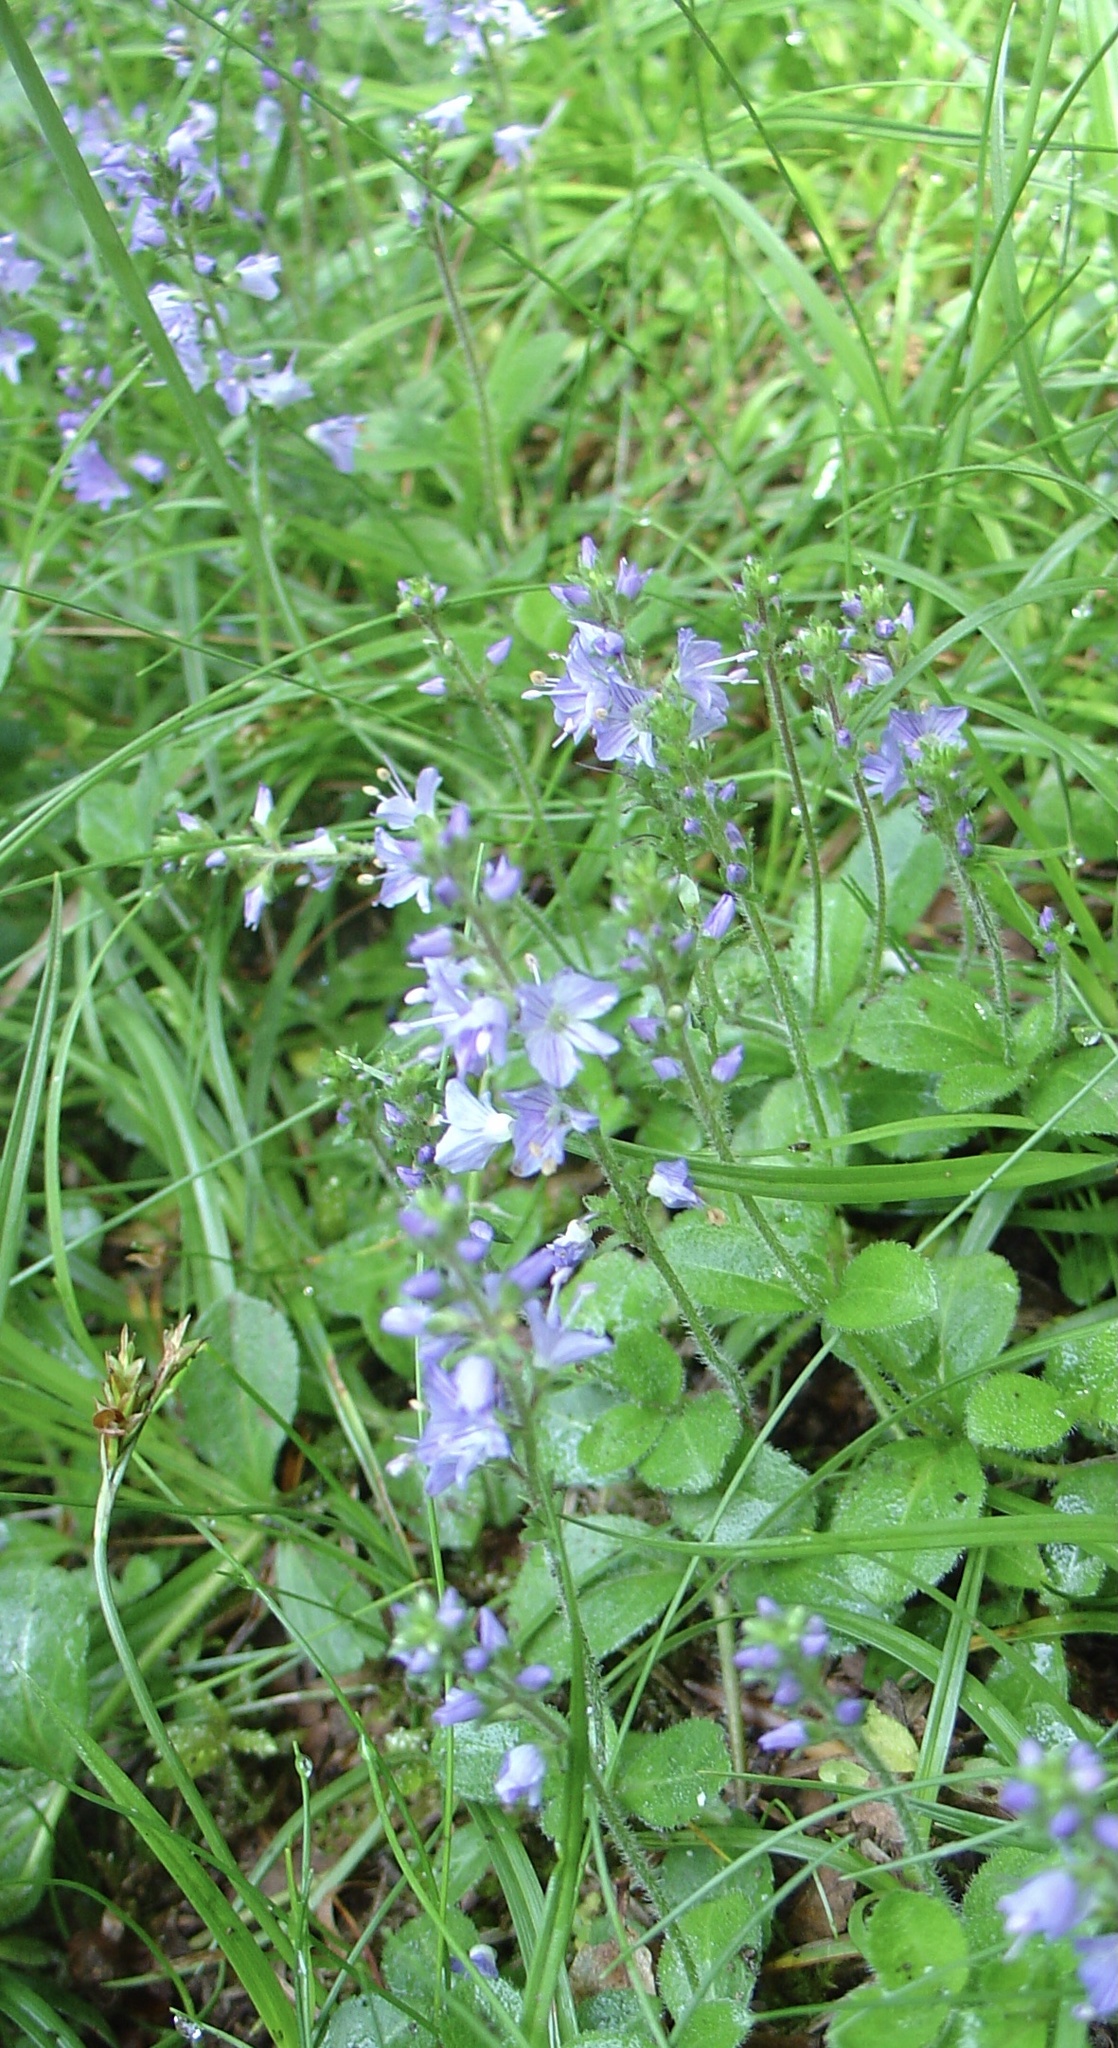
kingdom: Plantae
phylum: Tracheophyta
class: Magnoliopsida
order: Lamiales
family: Plantaginaceae
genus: Veronica
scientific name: Veronica officinalis
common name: Common speedwell
